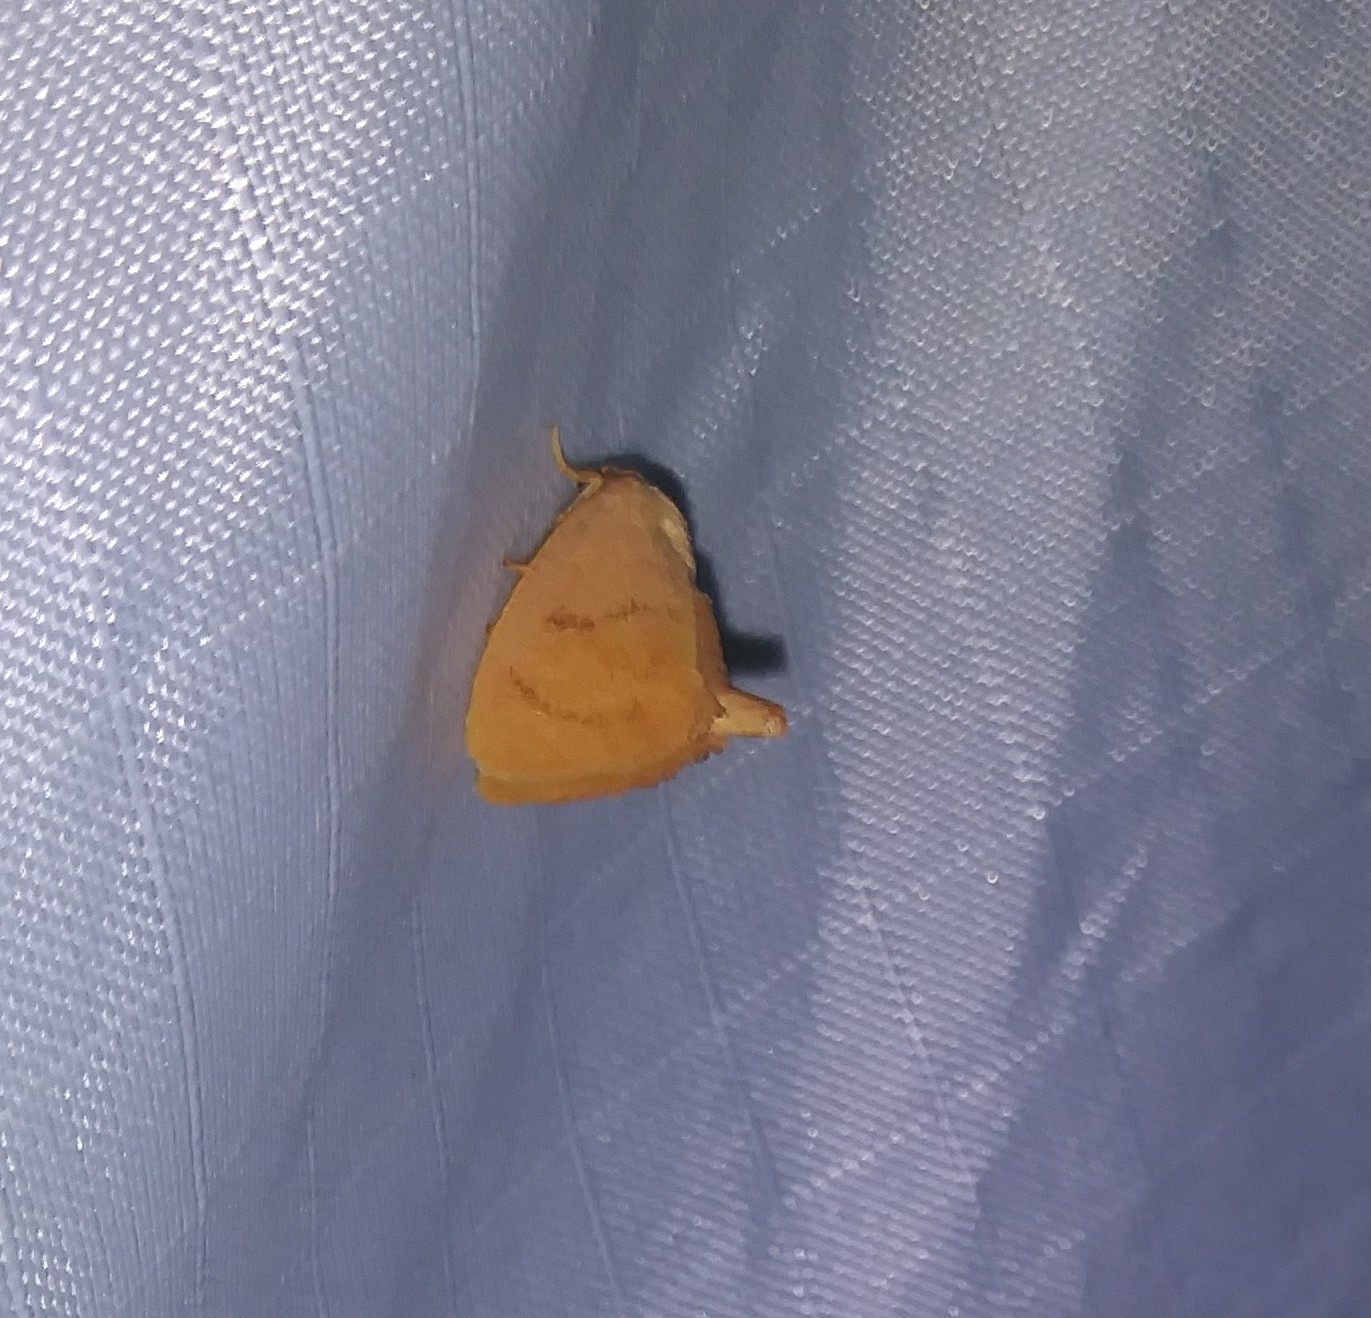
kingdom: Animalia
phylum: Arthropoda
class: Insecta
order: Lepidoptera
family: Limacodidae
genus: Tortricidia
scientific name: Tortricidia flexuosa
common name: Abbreviated button slug moth
